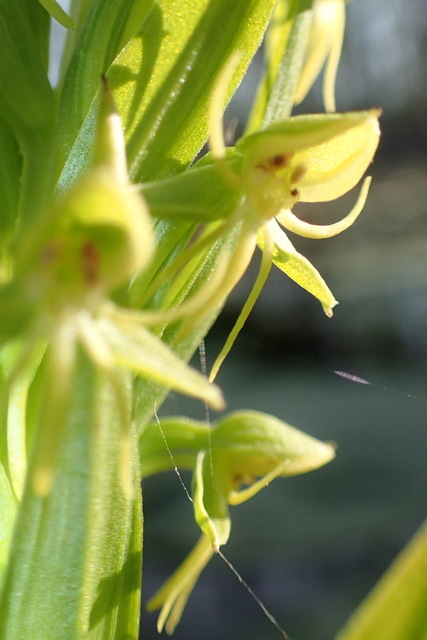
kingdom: Plantae
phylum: Tracheophyta
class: Liliopsida
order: Asparagales
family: Orchidaceae
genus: Habenaria
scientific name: Habenaria repens
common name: Water orchid
